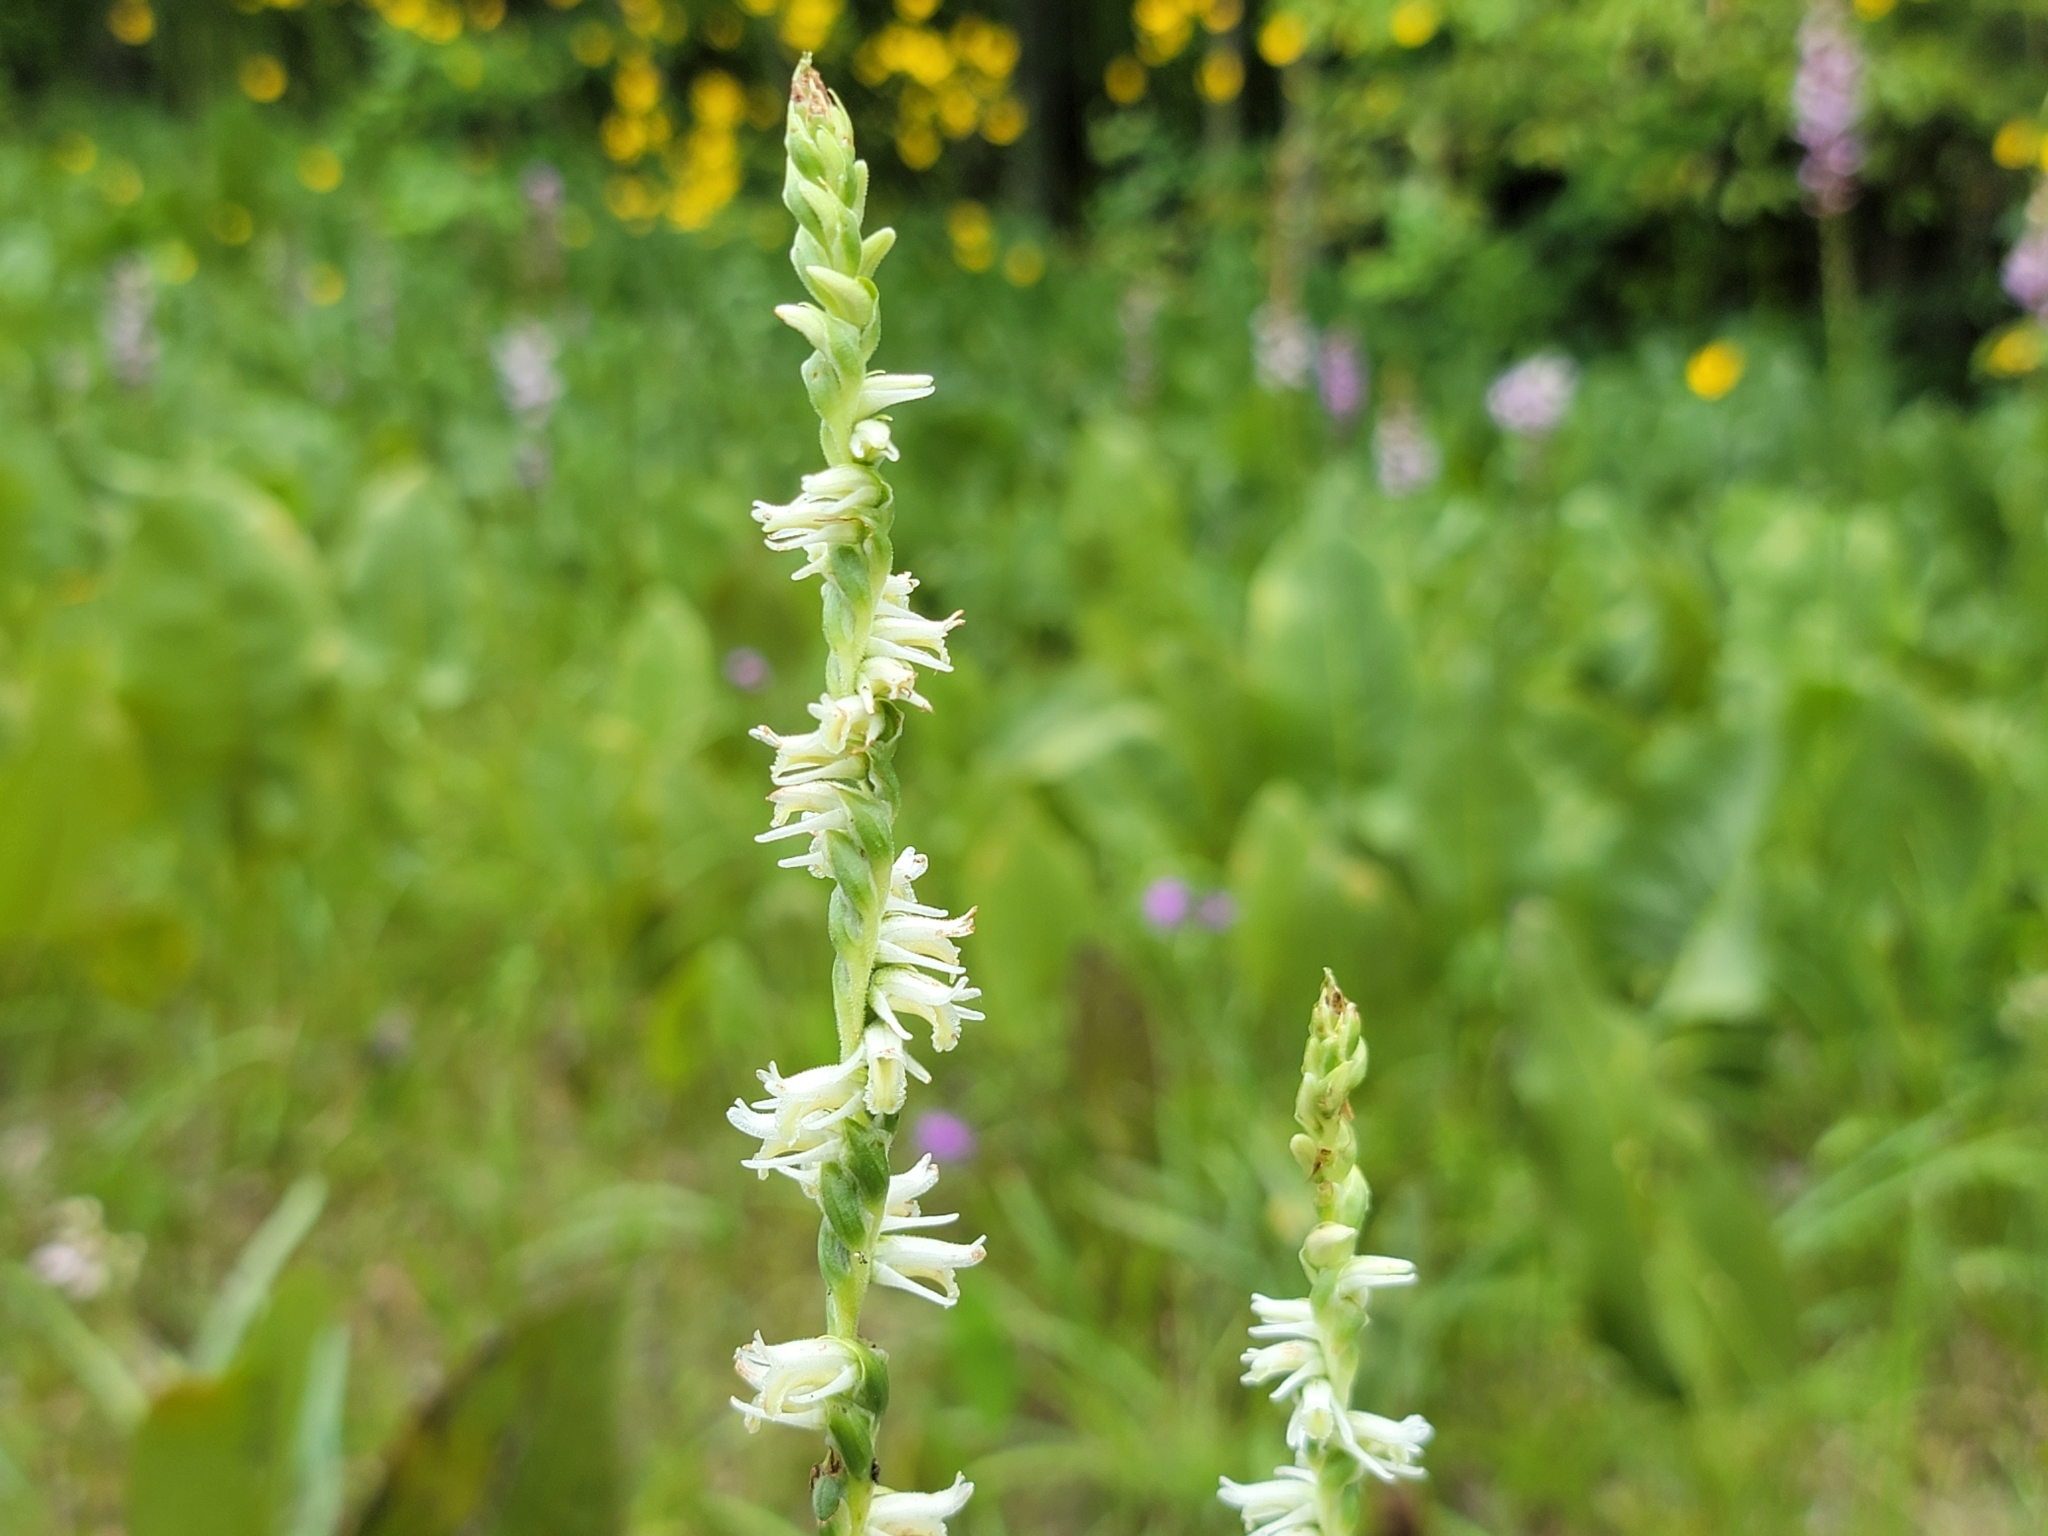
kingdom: Plantae
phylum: Tracheophyta
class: Liliopsida
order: Asparagales
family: Orchidaceae
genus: Spiranthes
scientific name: Spiranthes vernalis
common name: Spring ladies'-tresses
